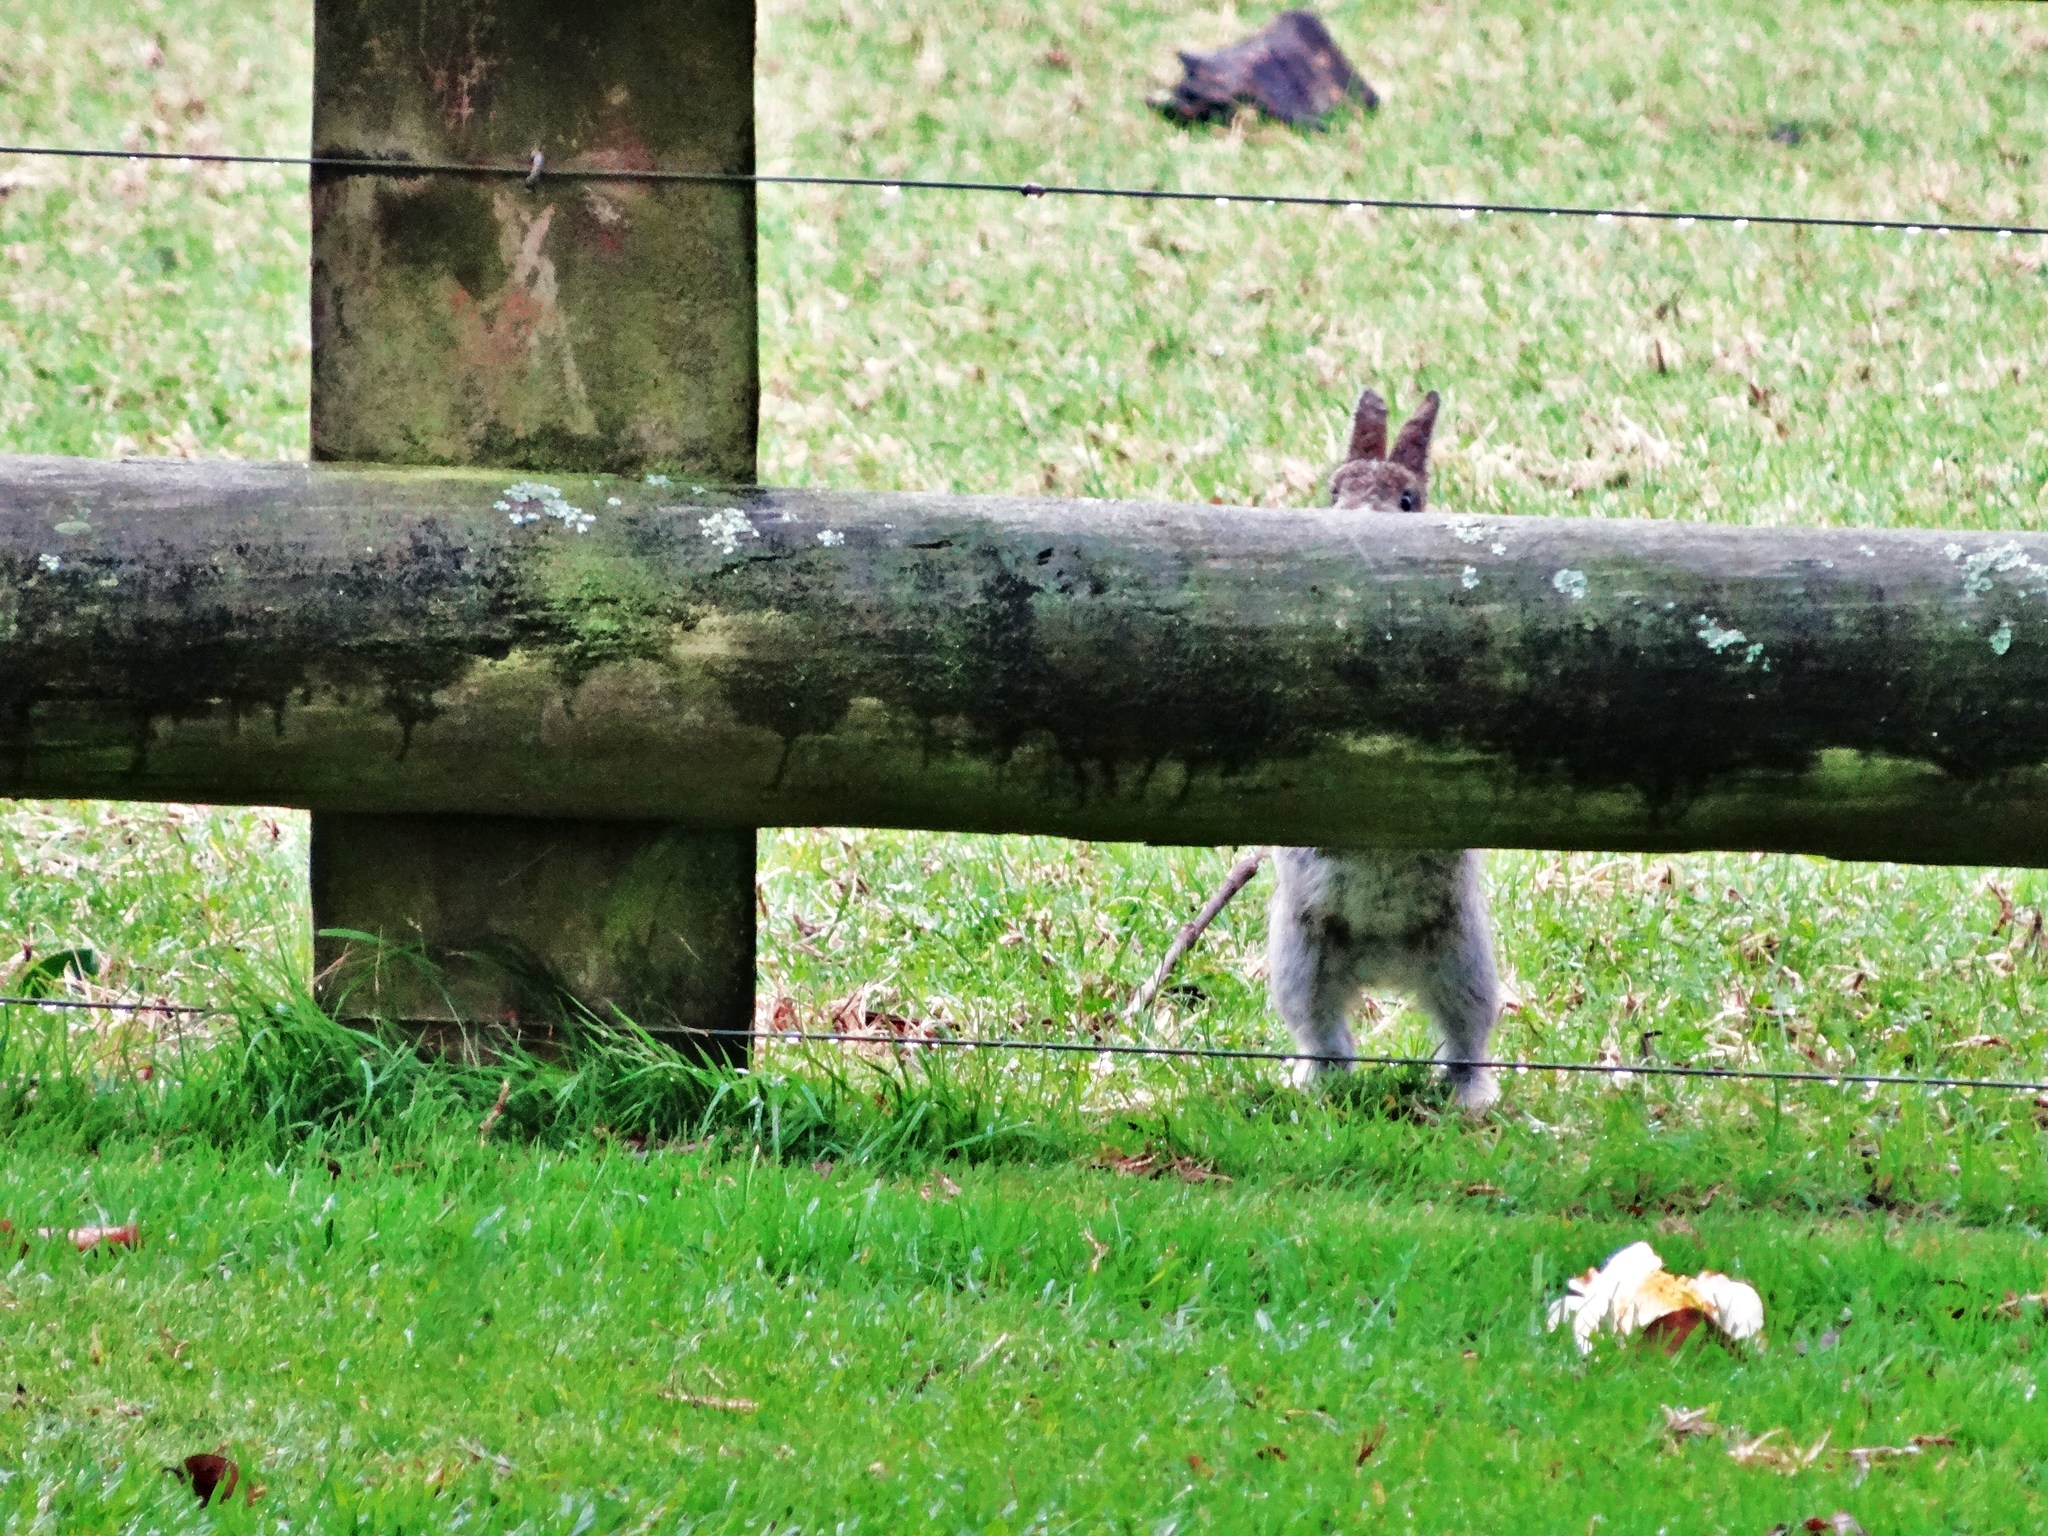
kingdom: Animalia
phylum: Chordata
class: Mammalia
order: Lagomorpha
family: Leporidae
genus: Oryctolagus
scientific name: Oryctolagus cuniculus
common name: European rabbit
